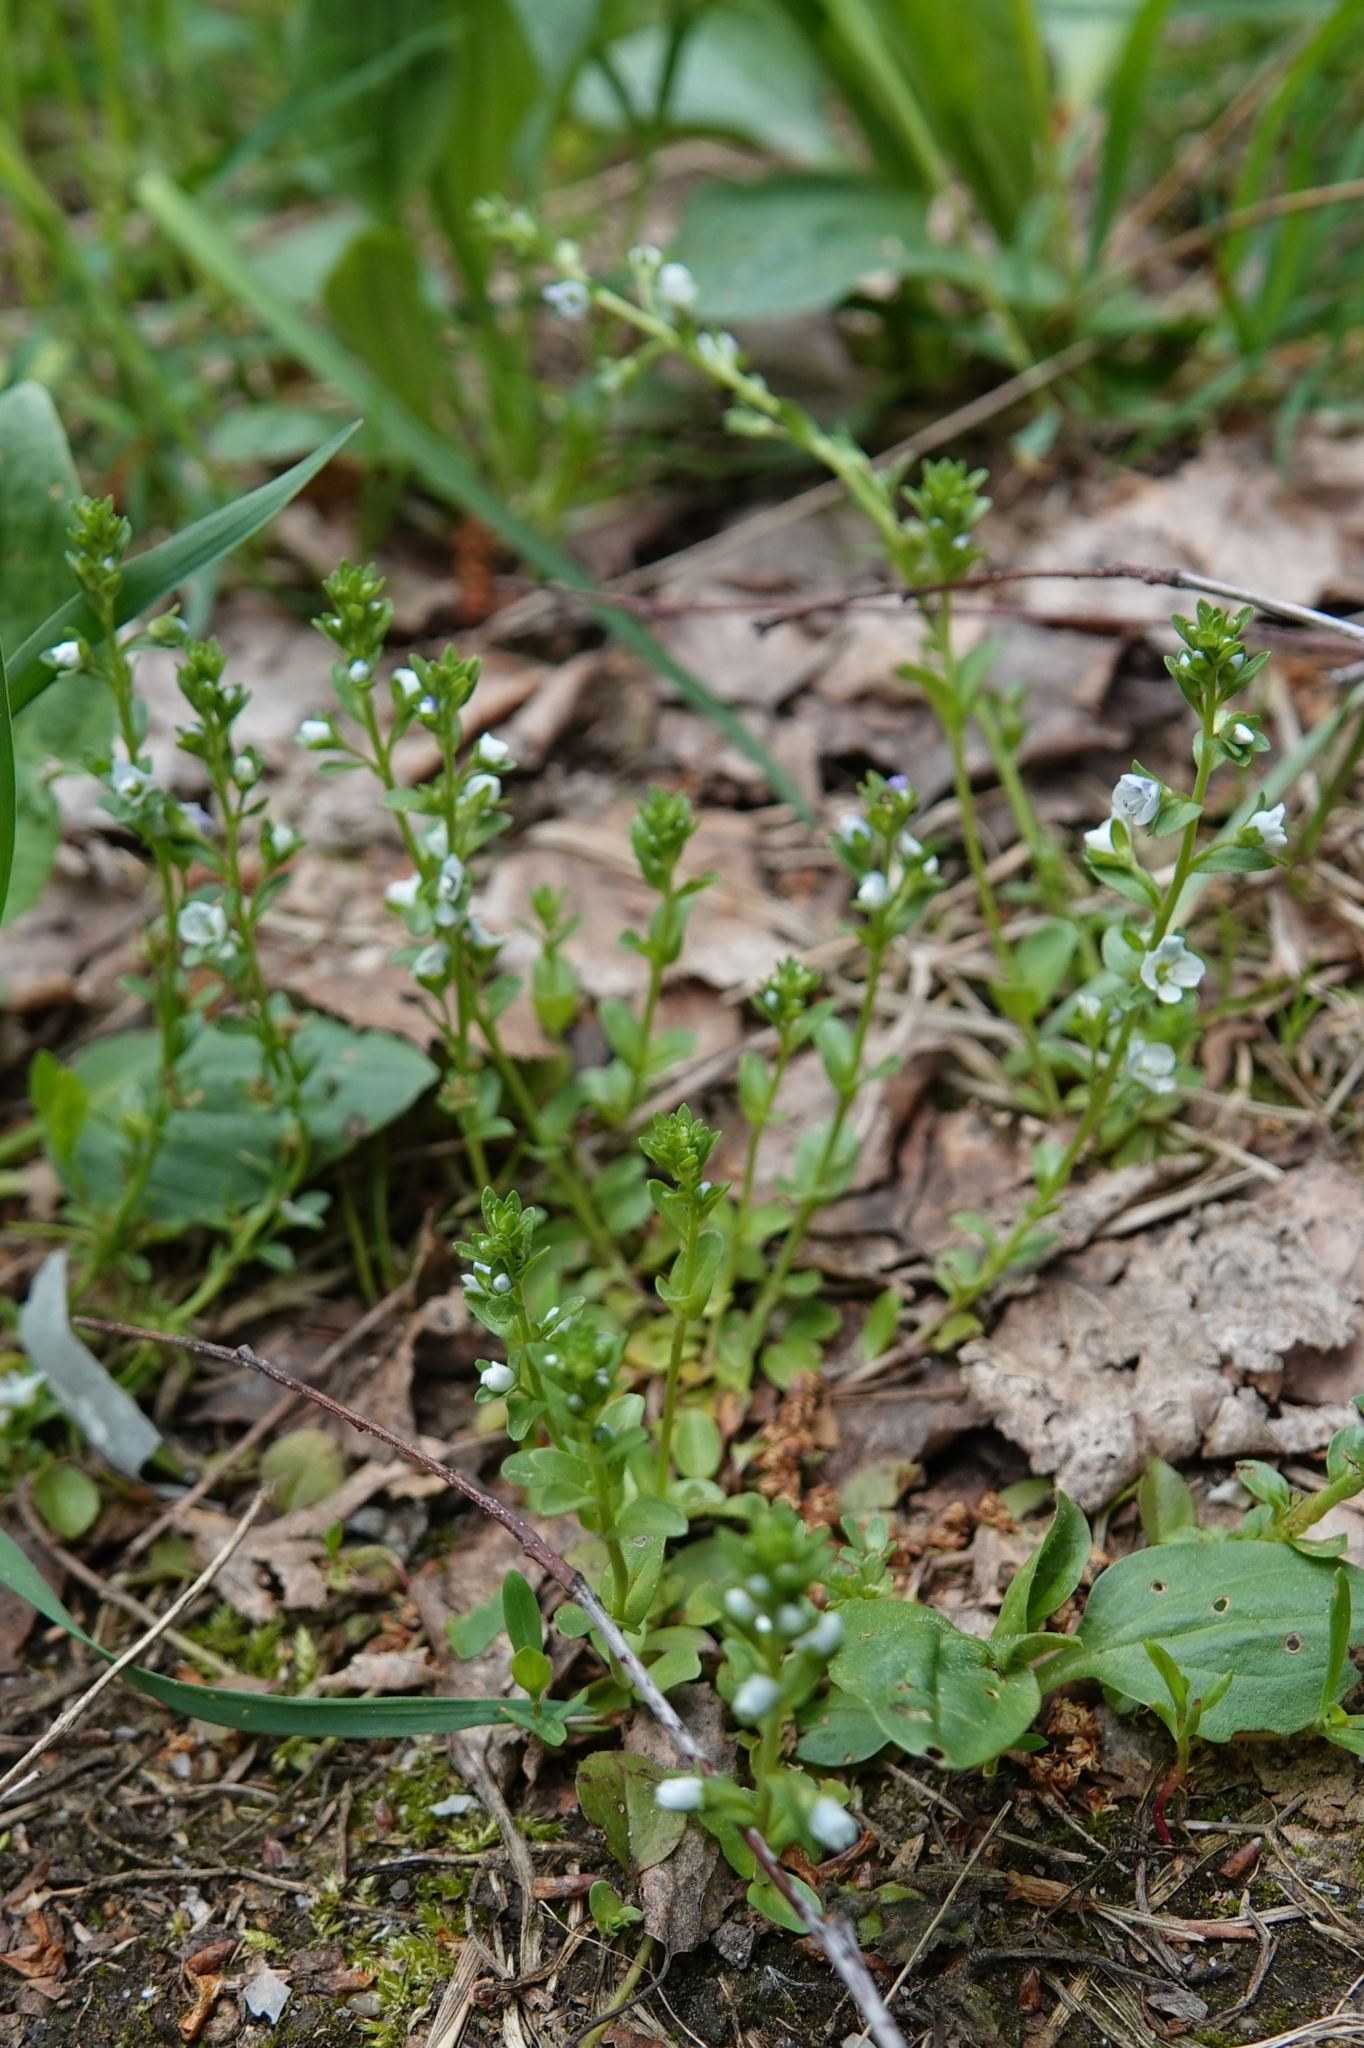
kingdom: Plantae
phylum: Tracheophyta
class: Magnoliopsida
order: Lamiales
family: Plantaginaceae
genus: Veronica
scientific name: Veronica serpyllifolia
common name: Thyme-leaved speedwell
